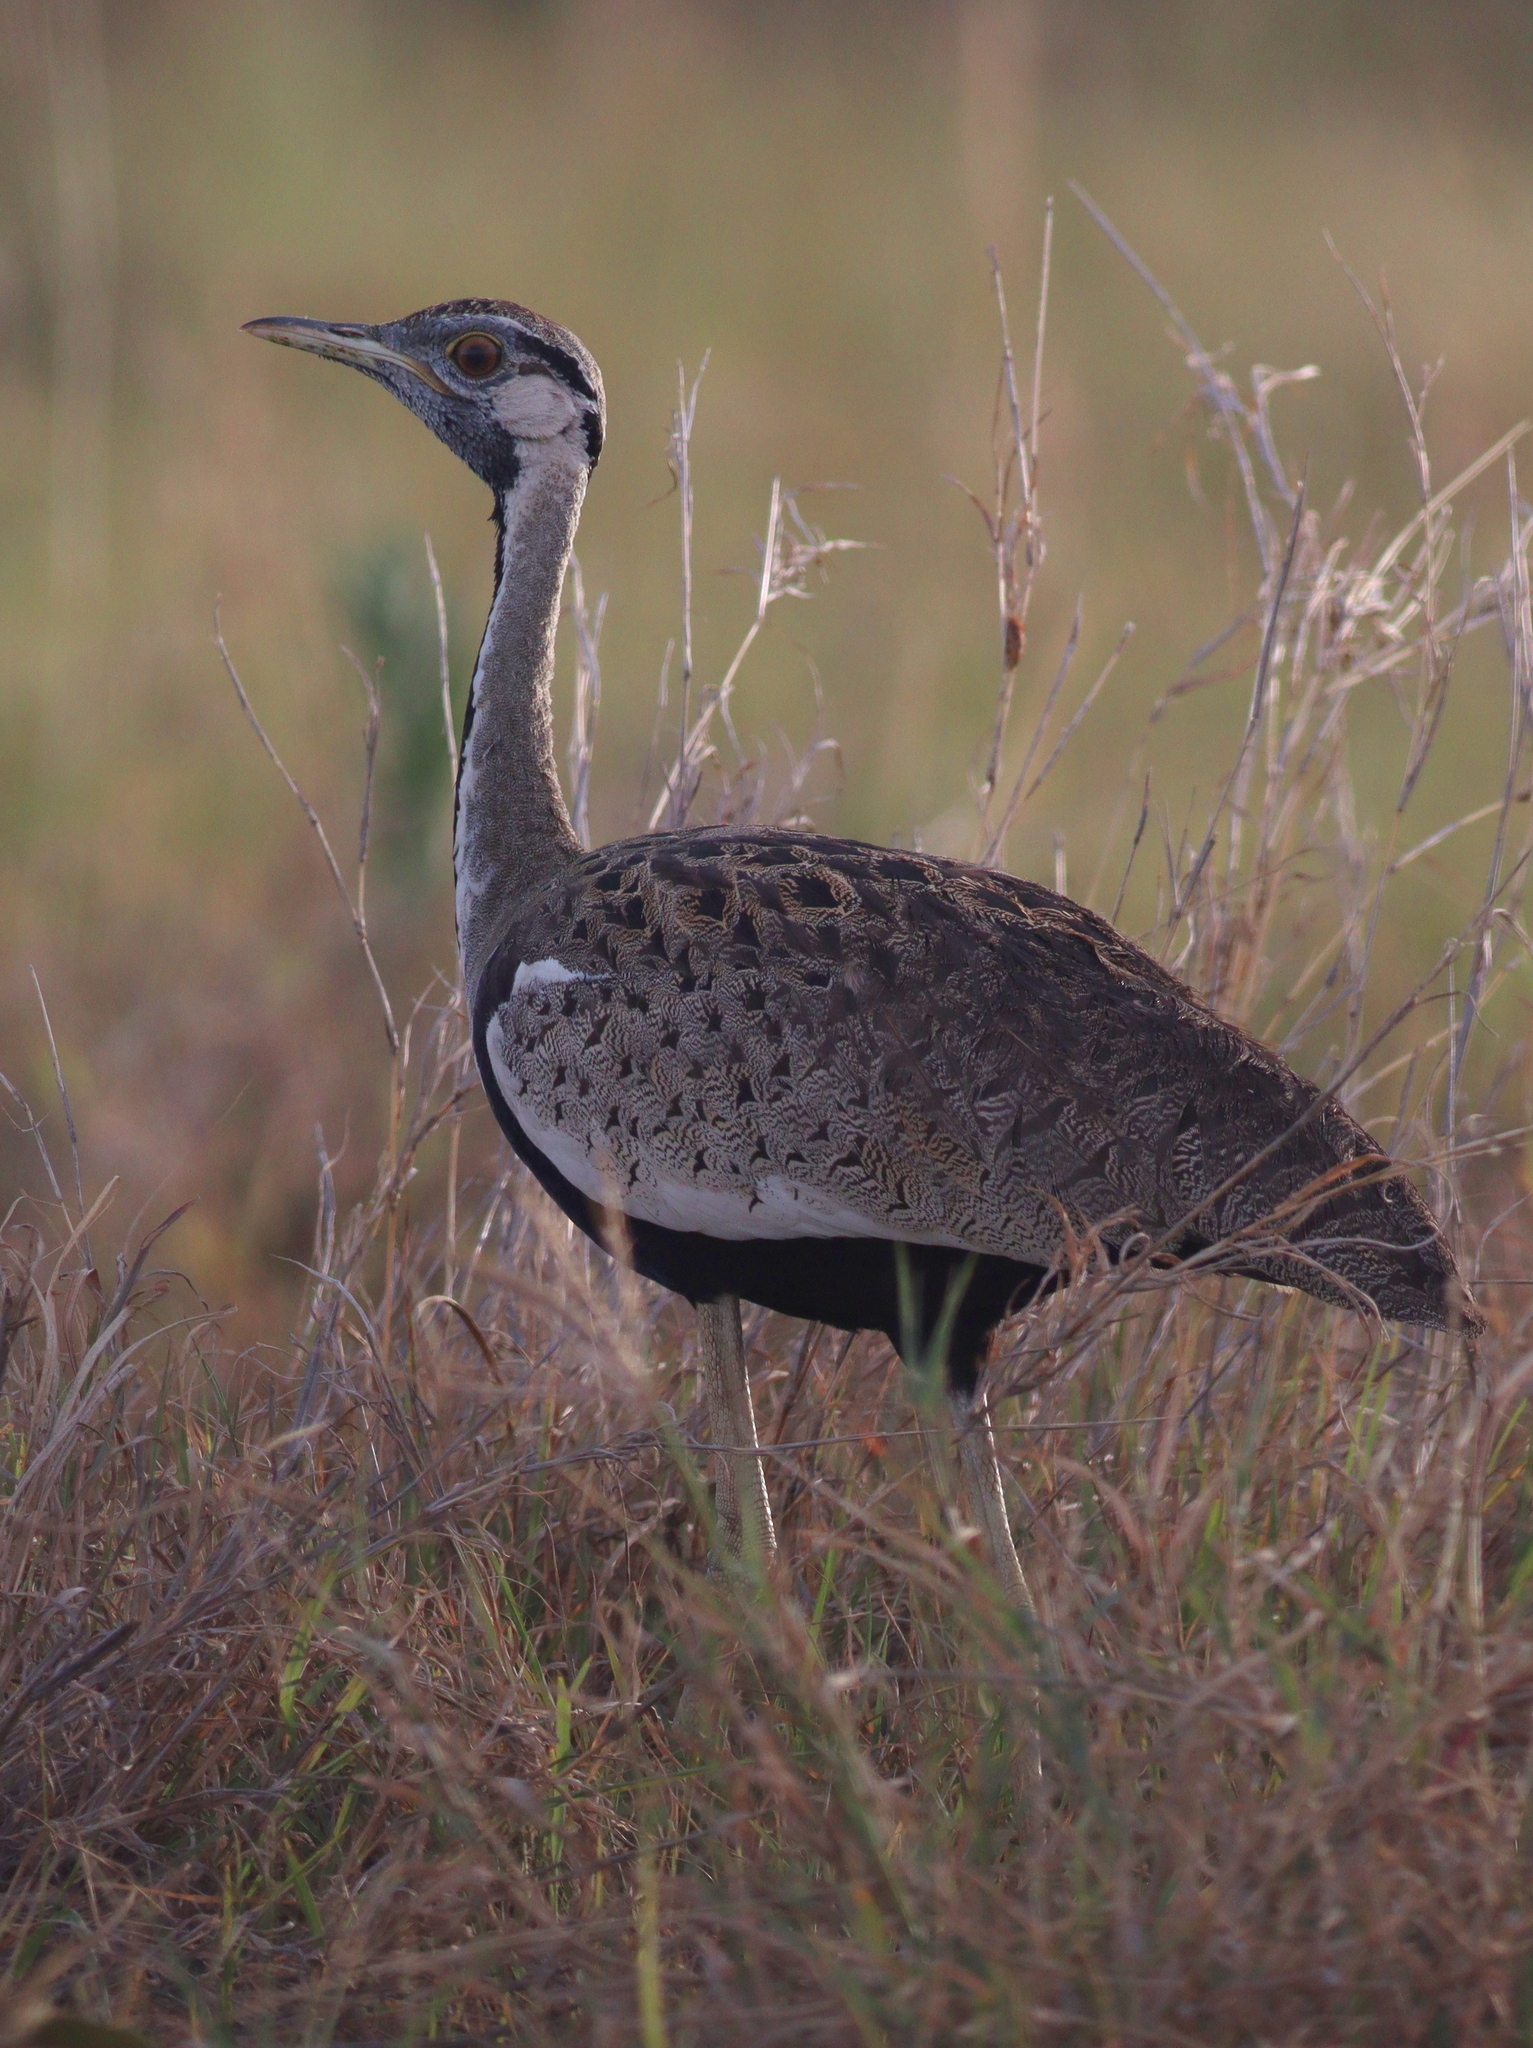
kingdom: Animalia
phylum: Chordata
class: Aves
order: Otidiformes
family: Otididae
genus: Lissotis
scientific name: Lissotis melanogaster
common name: Black-bellied bustard
